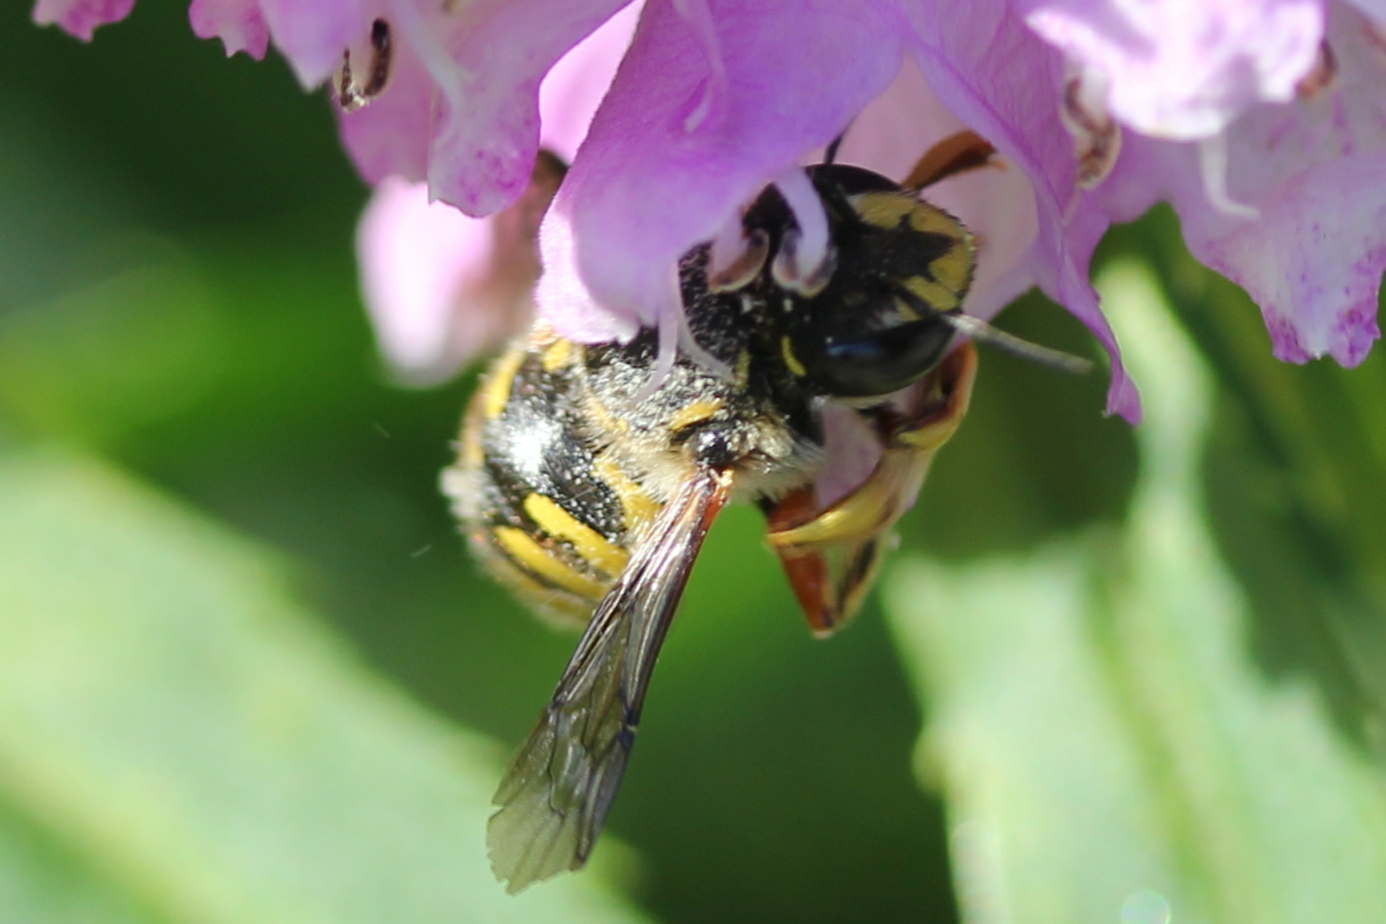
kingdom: Animalia
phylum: Arthropoda
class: Insecta
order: Hymenoptera
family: Megachilidae
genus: Anthidium
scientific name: Anthidium manicatum
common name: Wool carder bee
